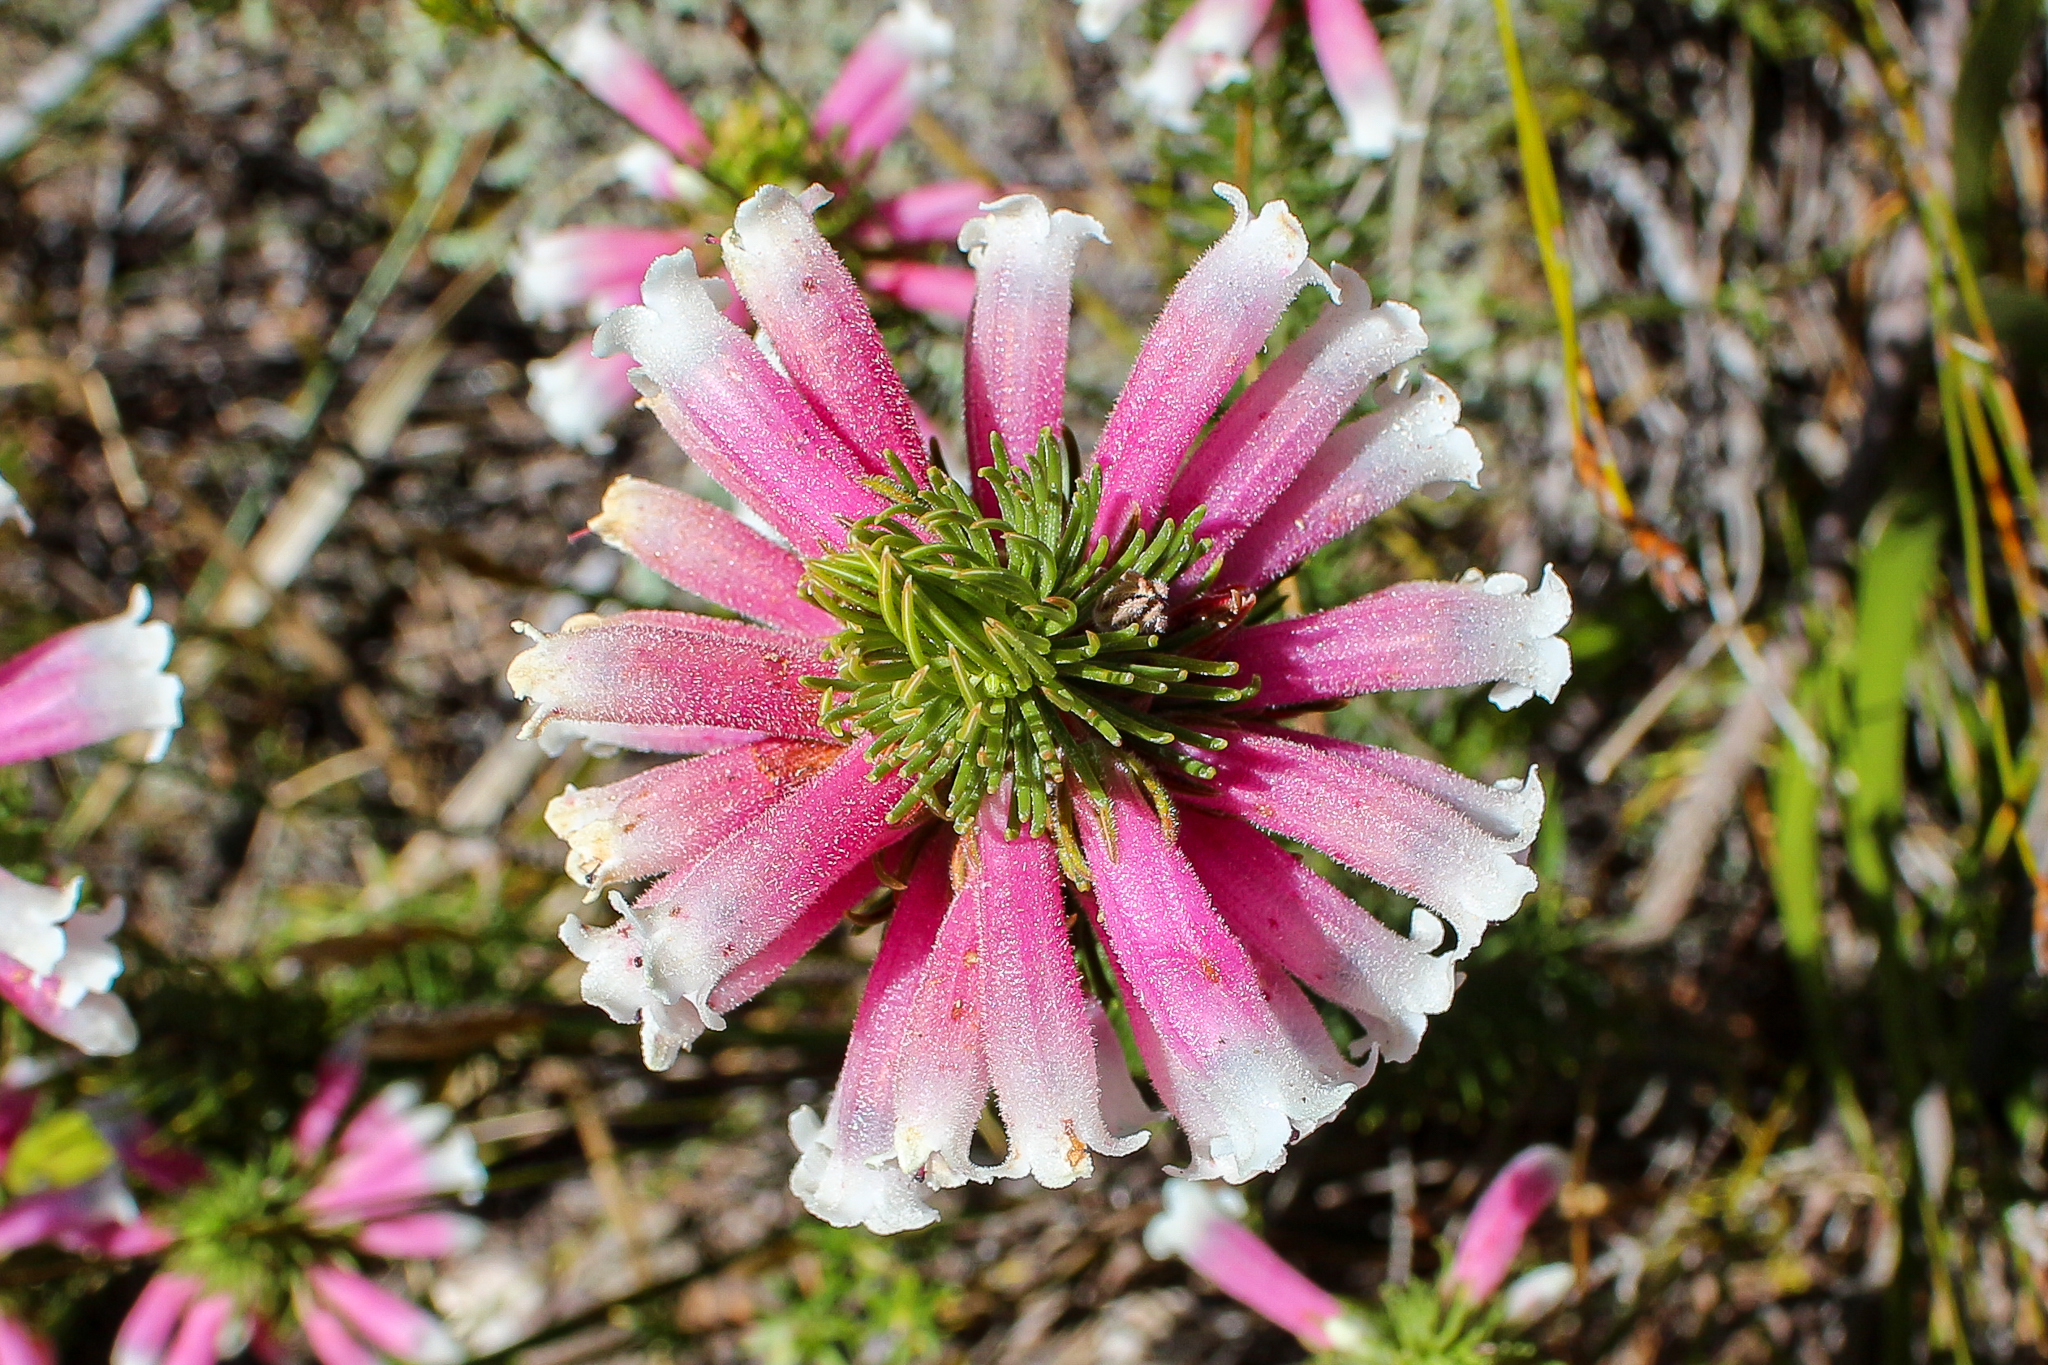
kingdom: Plantae
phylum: Tracheophyta
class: Magnoliopsida
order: Ericales
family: Ericaceae
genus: Erica
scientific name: Erica viscaria
